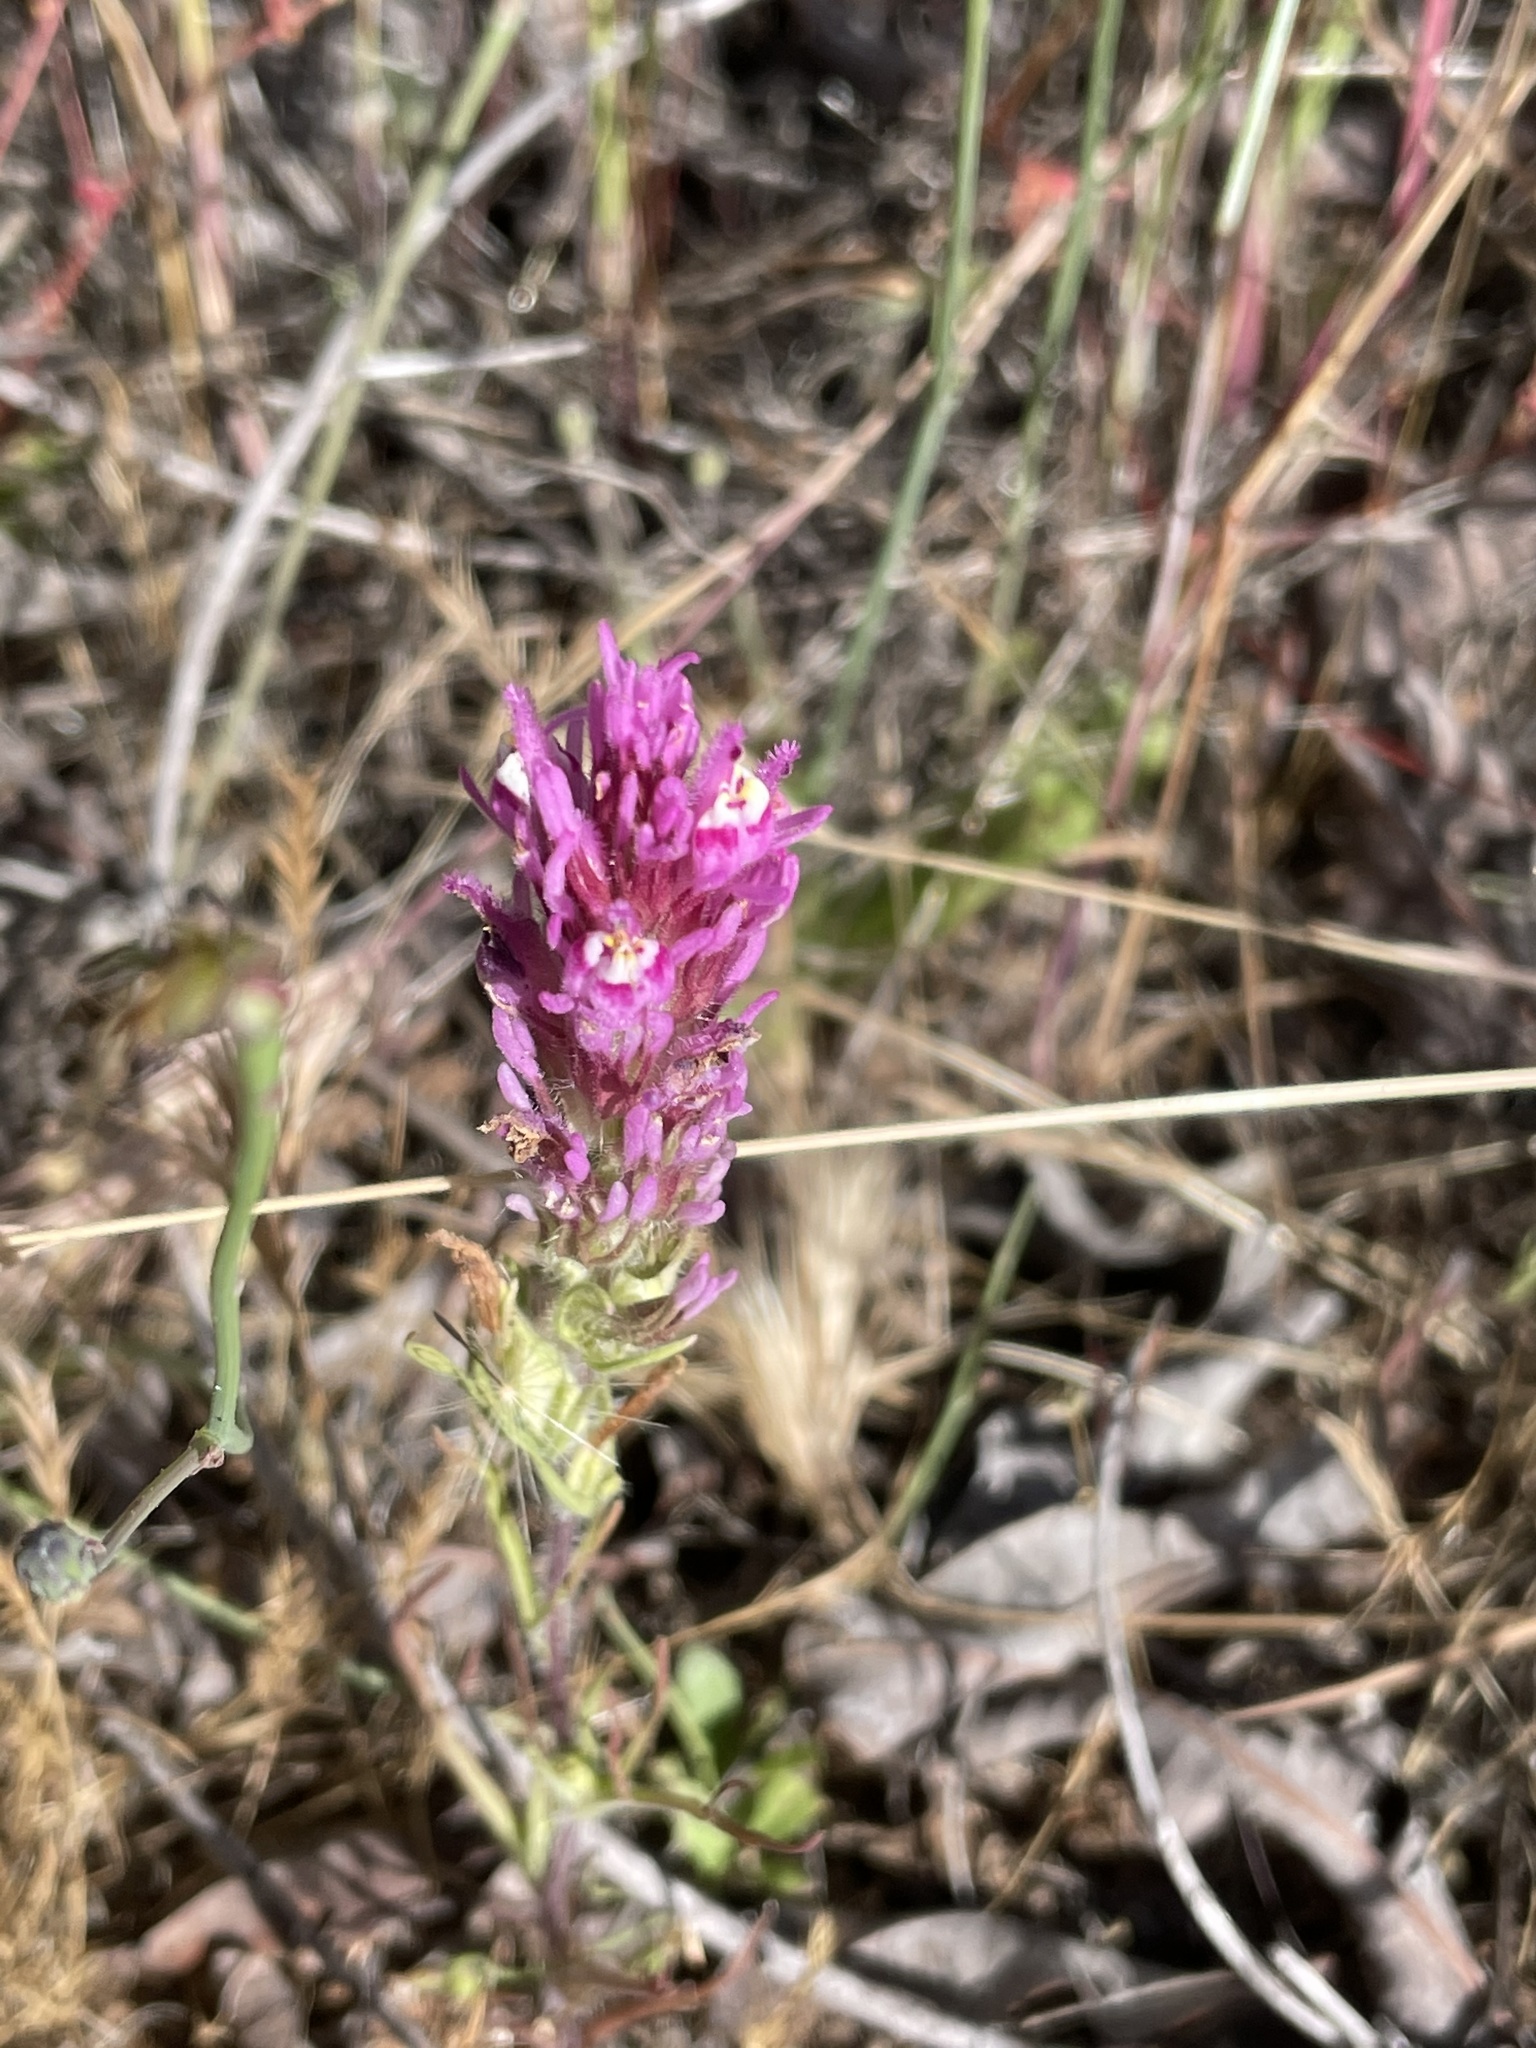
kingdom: Plantae
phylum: Tracheophyta
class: Magnoliopsida
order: Lamiales
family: Orobanchaceae
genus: Castilleja
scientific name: Castilleja exserta
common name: Purple owl-clover
